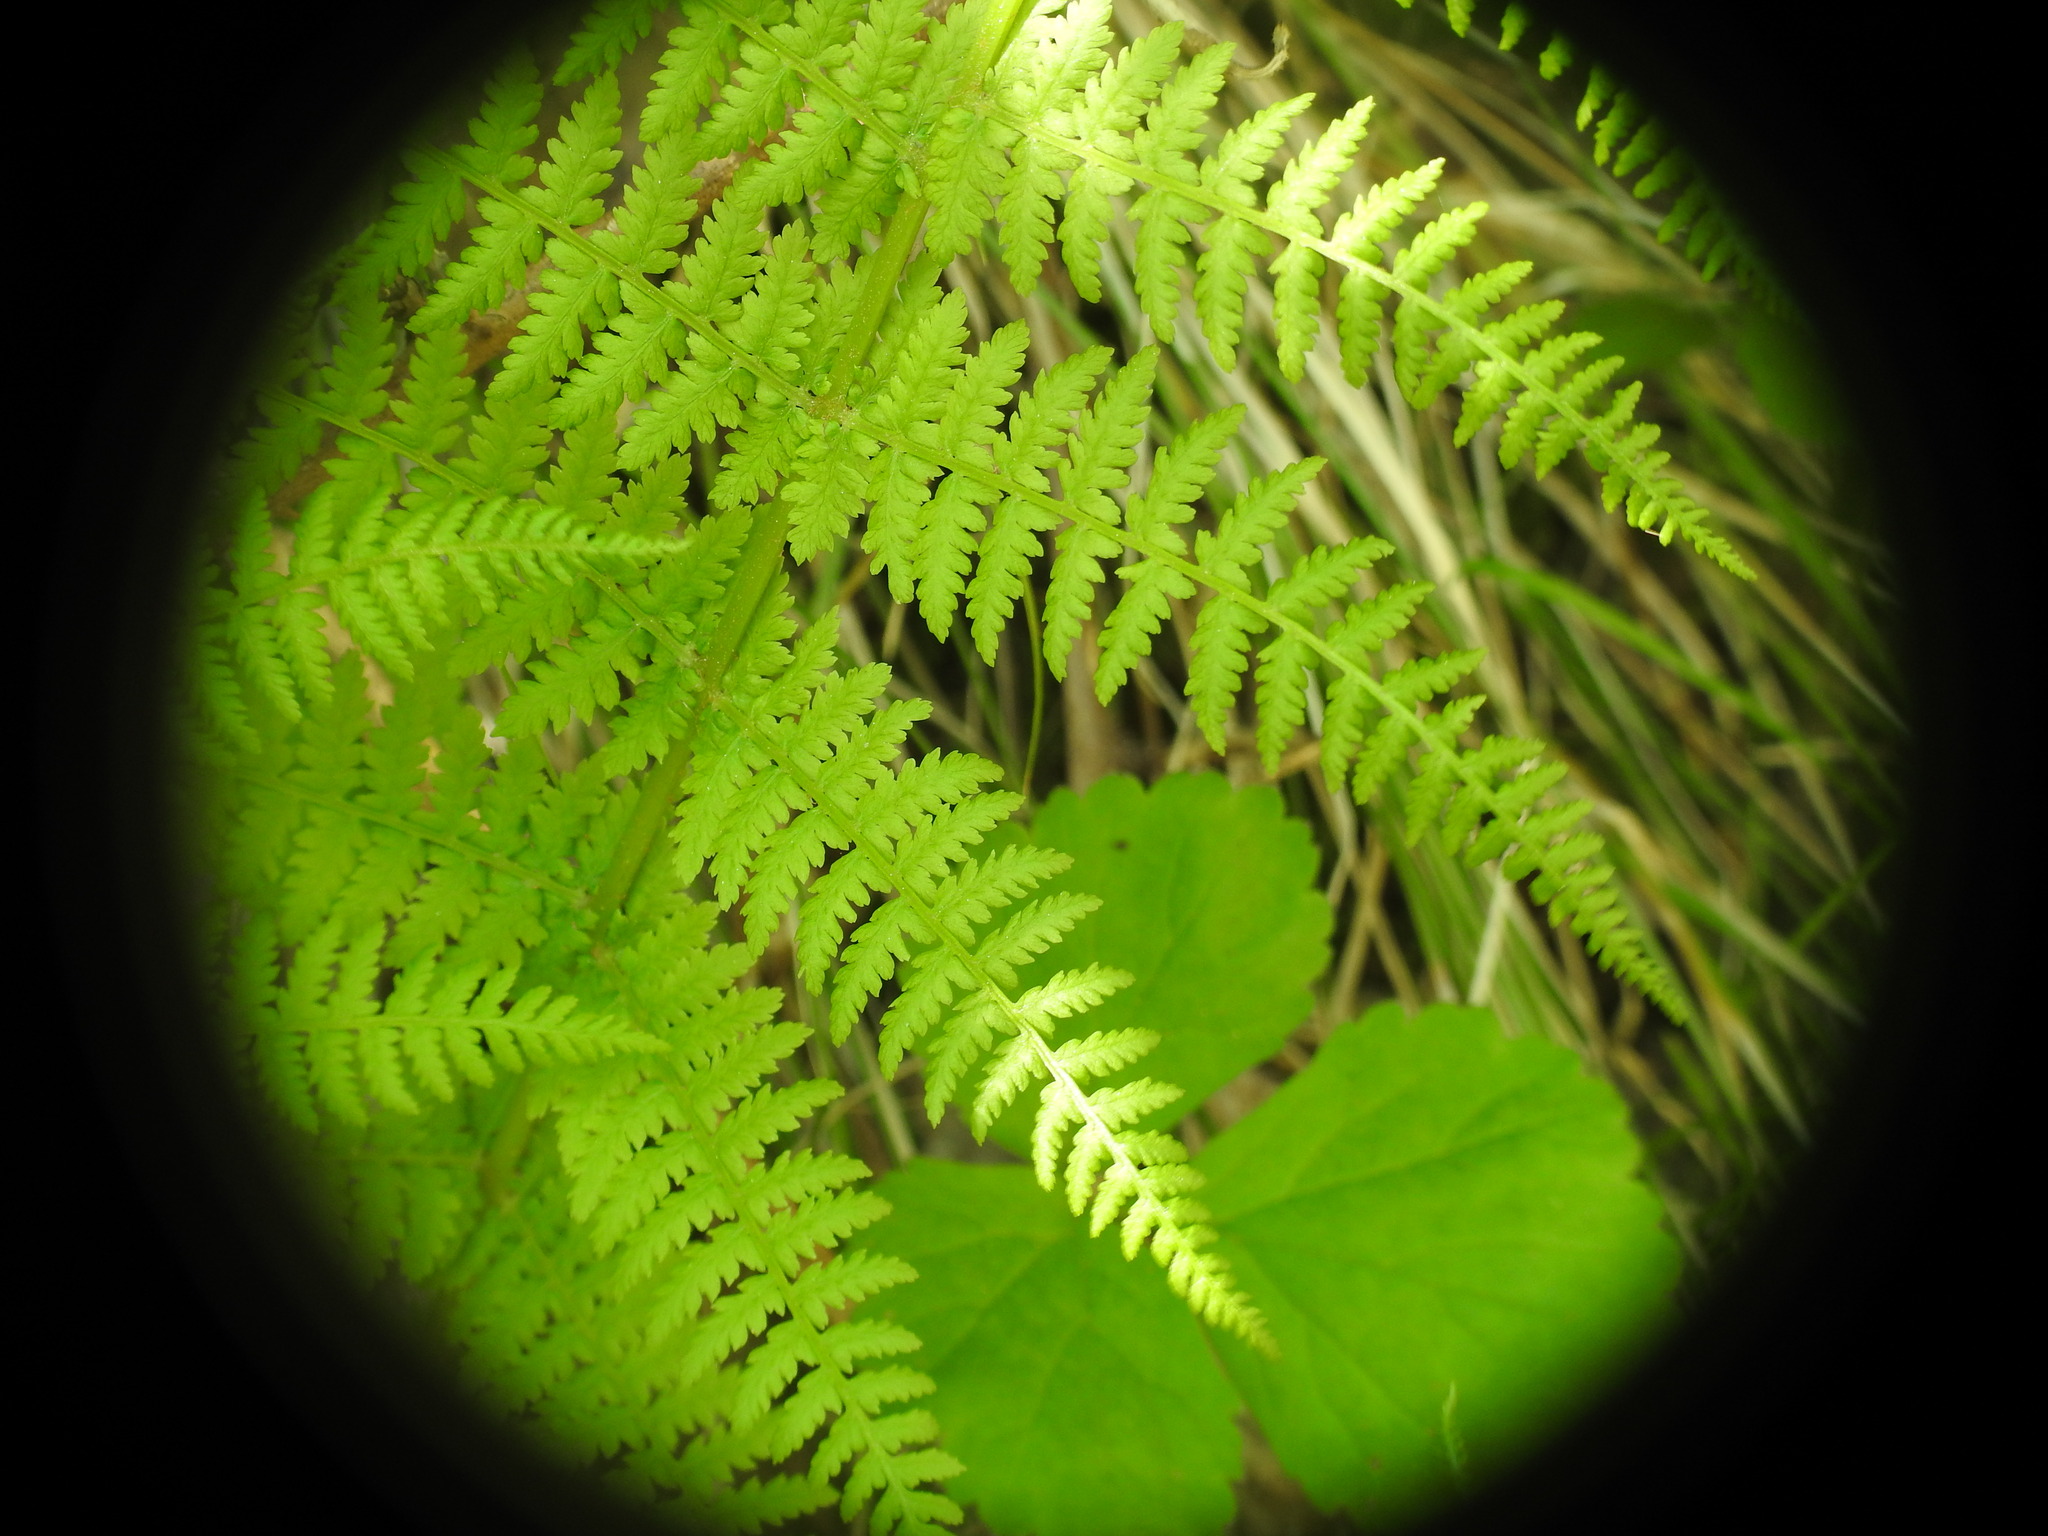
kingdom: Plantae
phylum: Tracheophyta
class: Polypodiopsida
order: Polypodiales
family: Athyriaceae
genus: Athyrium
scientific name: Athyrium filix-femina
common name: Lady fern
